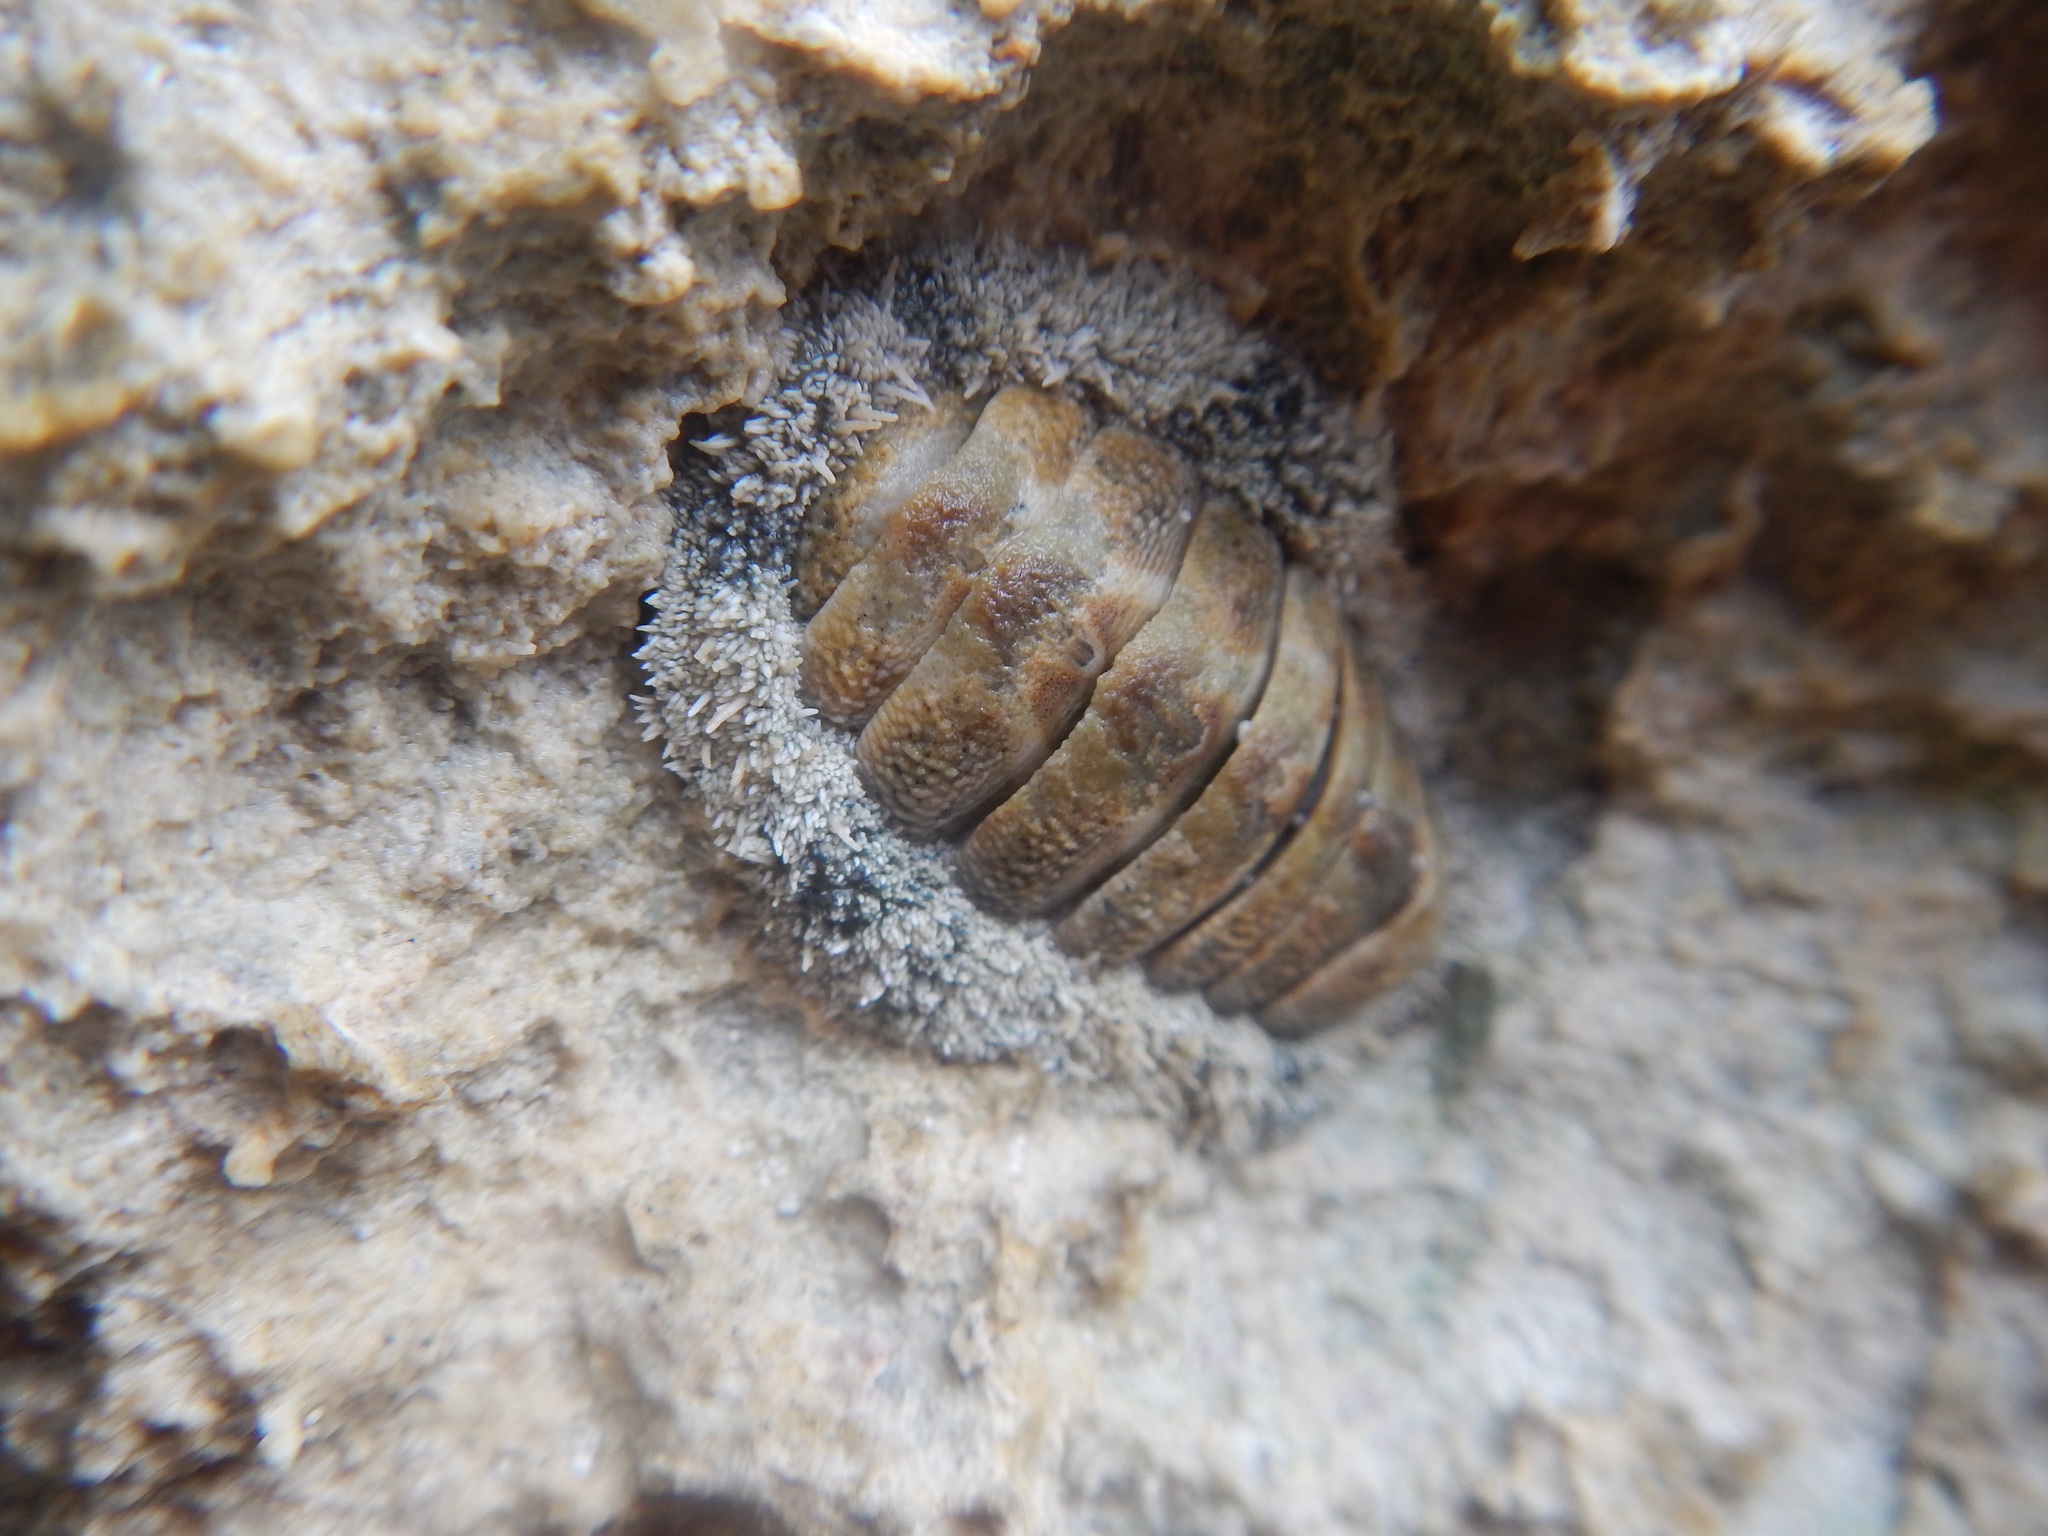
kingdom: Animalia
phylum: Mollusca
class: Polyplacophora
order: Chitonida
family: Chitonidae
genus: Acanthopleura
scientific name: Acanthopleura granulata
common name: West indian fuzzy chiton
